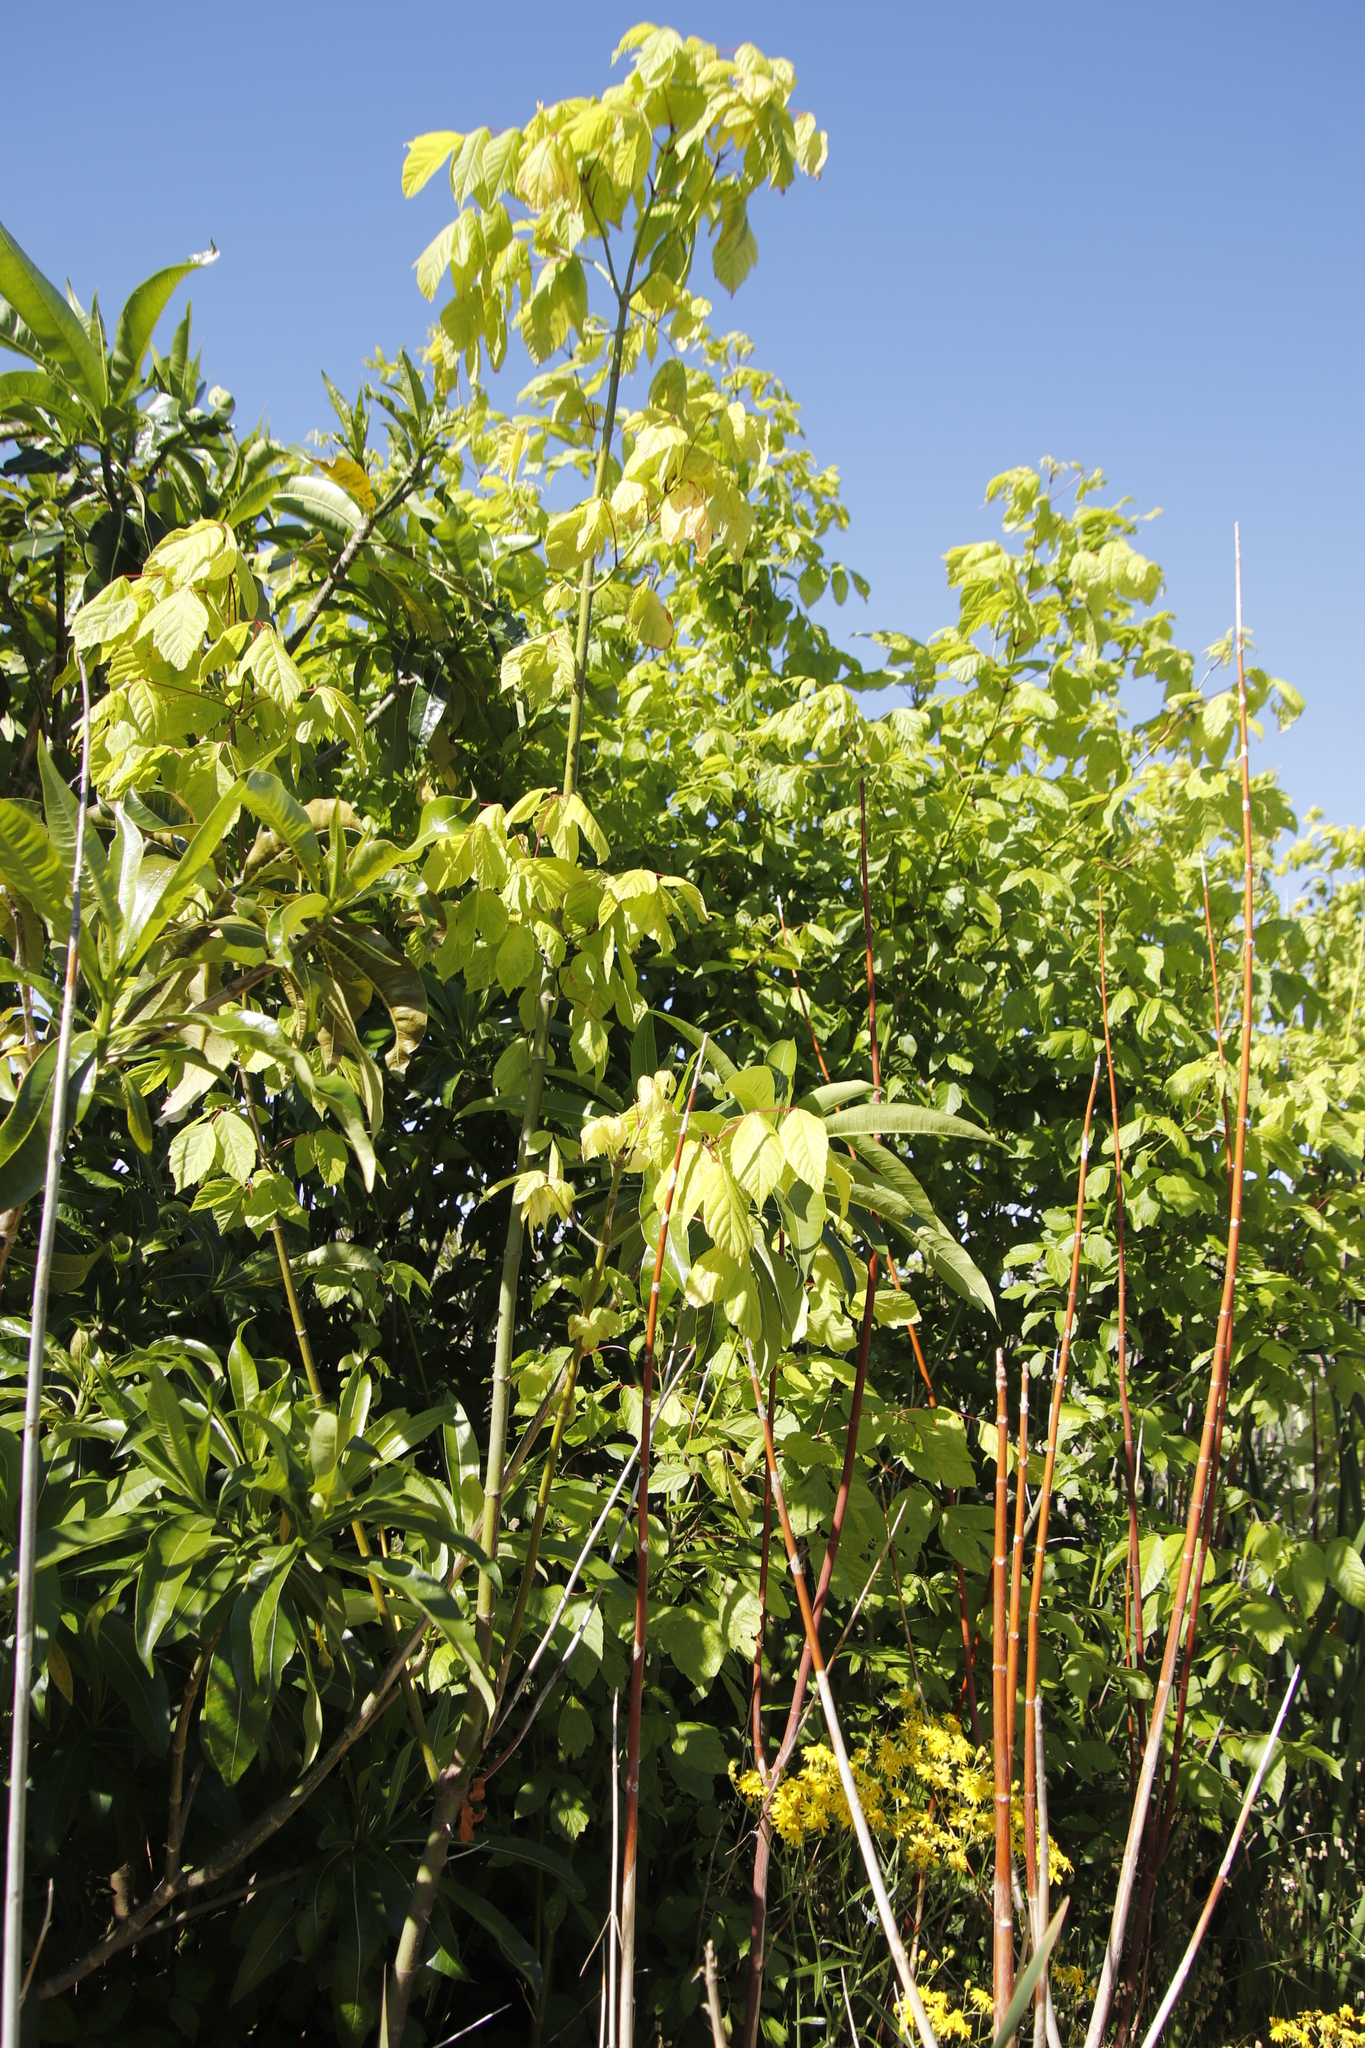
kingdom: Plantae
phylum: Tracheophyta
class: Magnoliopsida
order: Sapindales
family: Sapindaceae
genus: Acer
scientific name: Acer negundo
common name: Ashleaf maple
